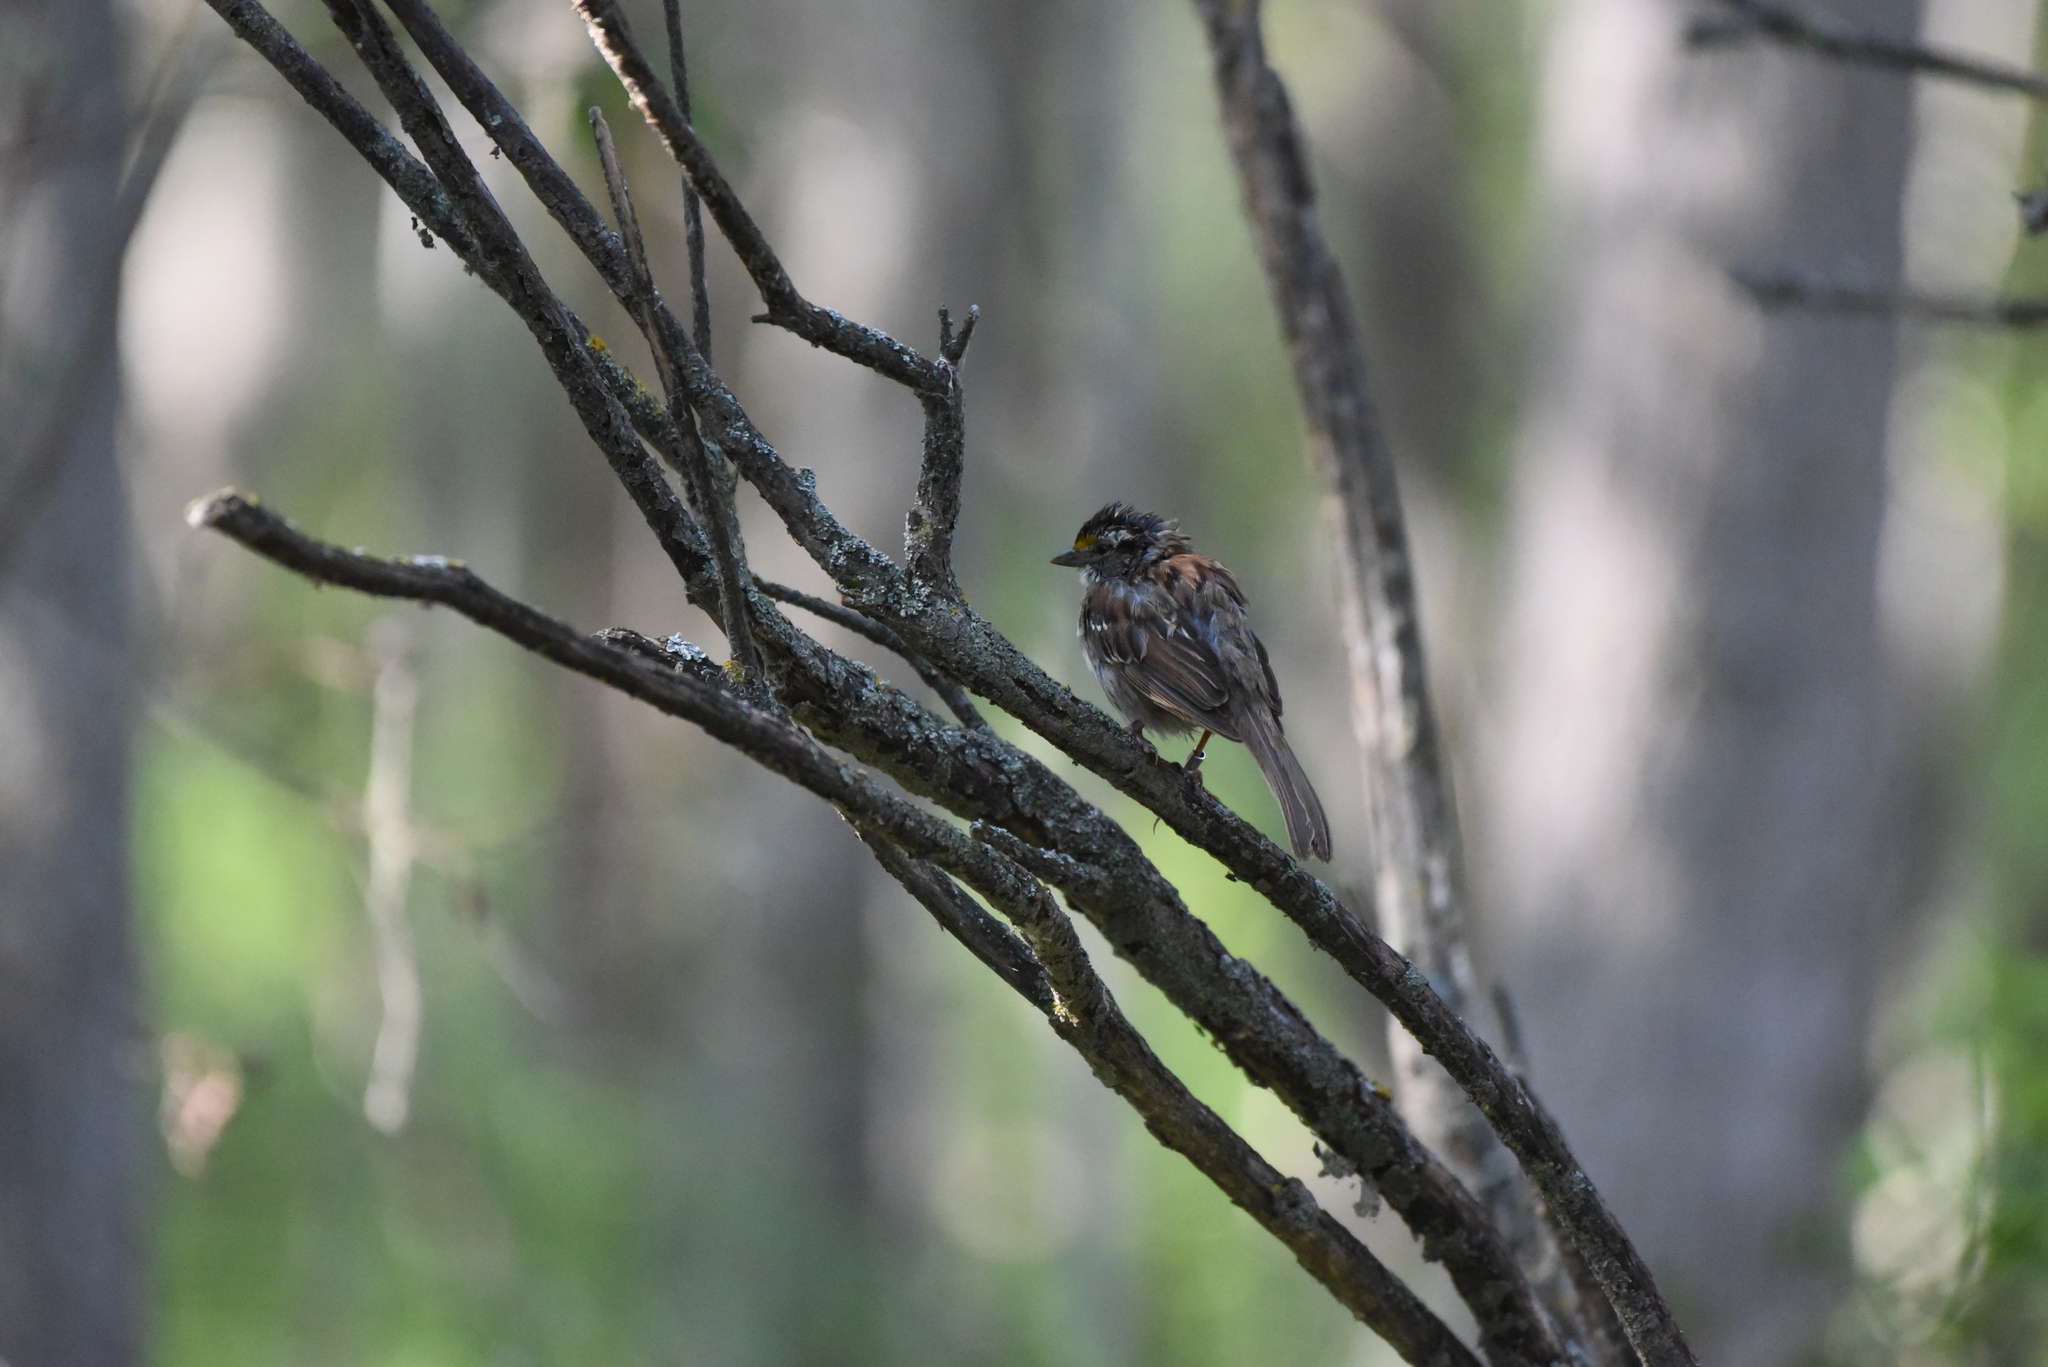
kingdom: Animalia
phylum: Chordata
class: Aves
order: Passeriformes
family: Passerellidae
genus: Zonotrichia
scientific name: Zonotrichia albicollis
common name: White-throated sparrow
